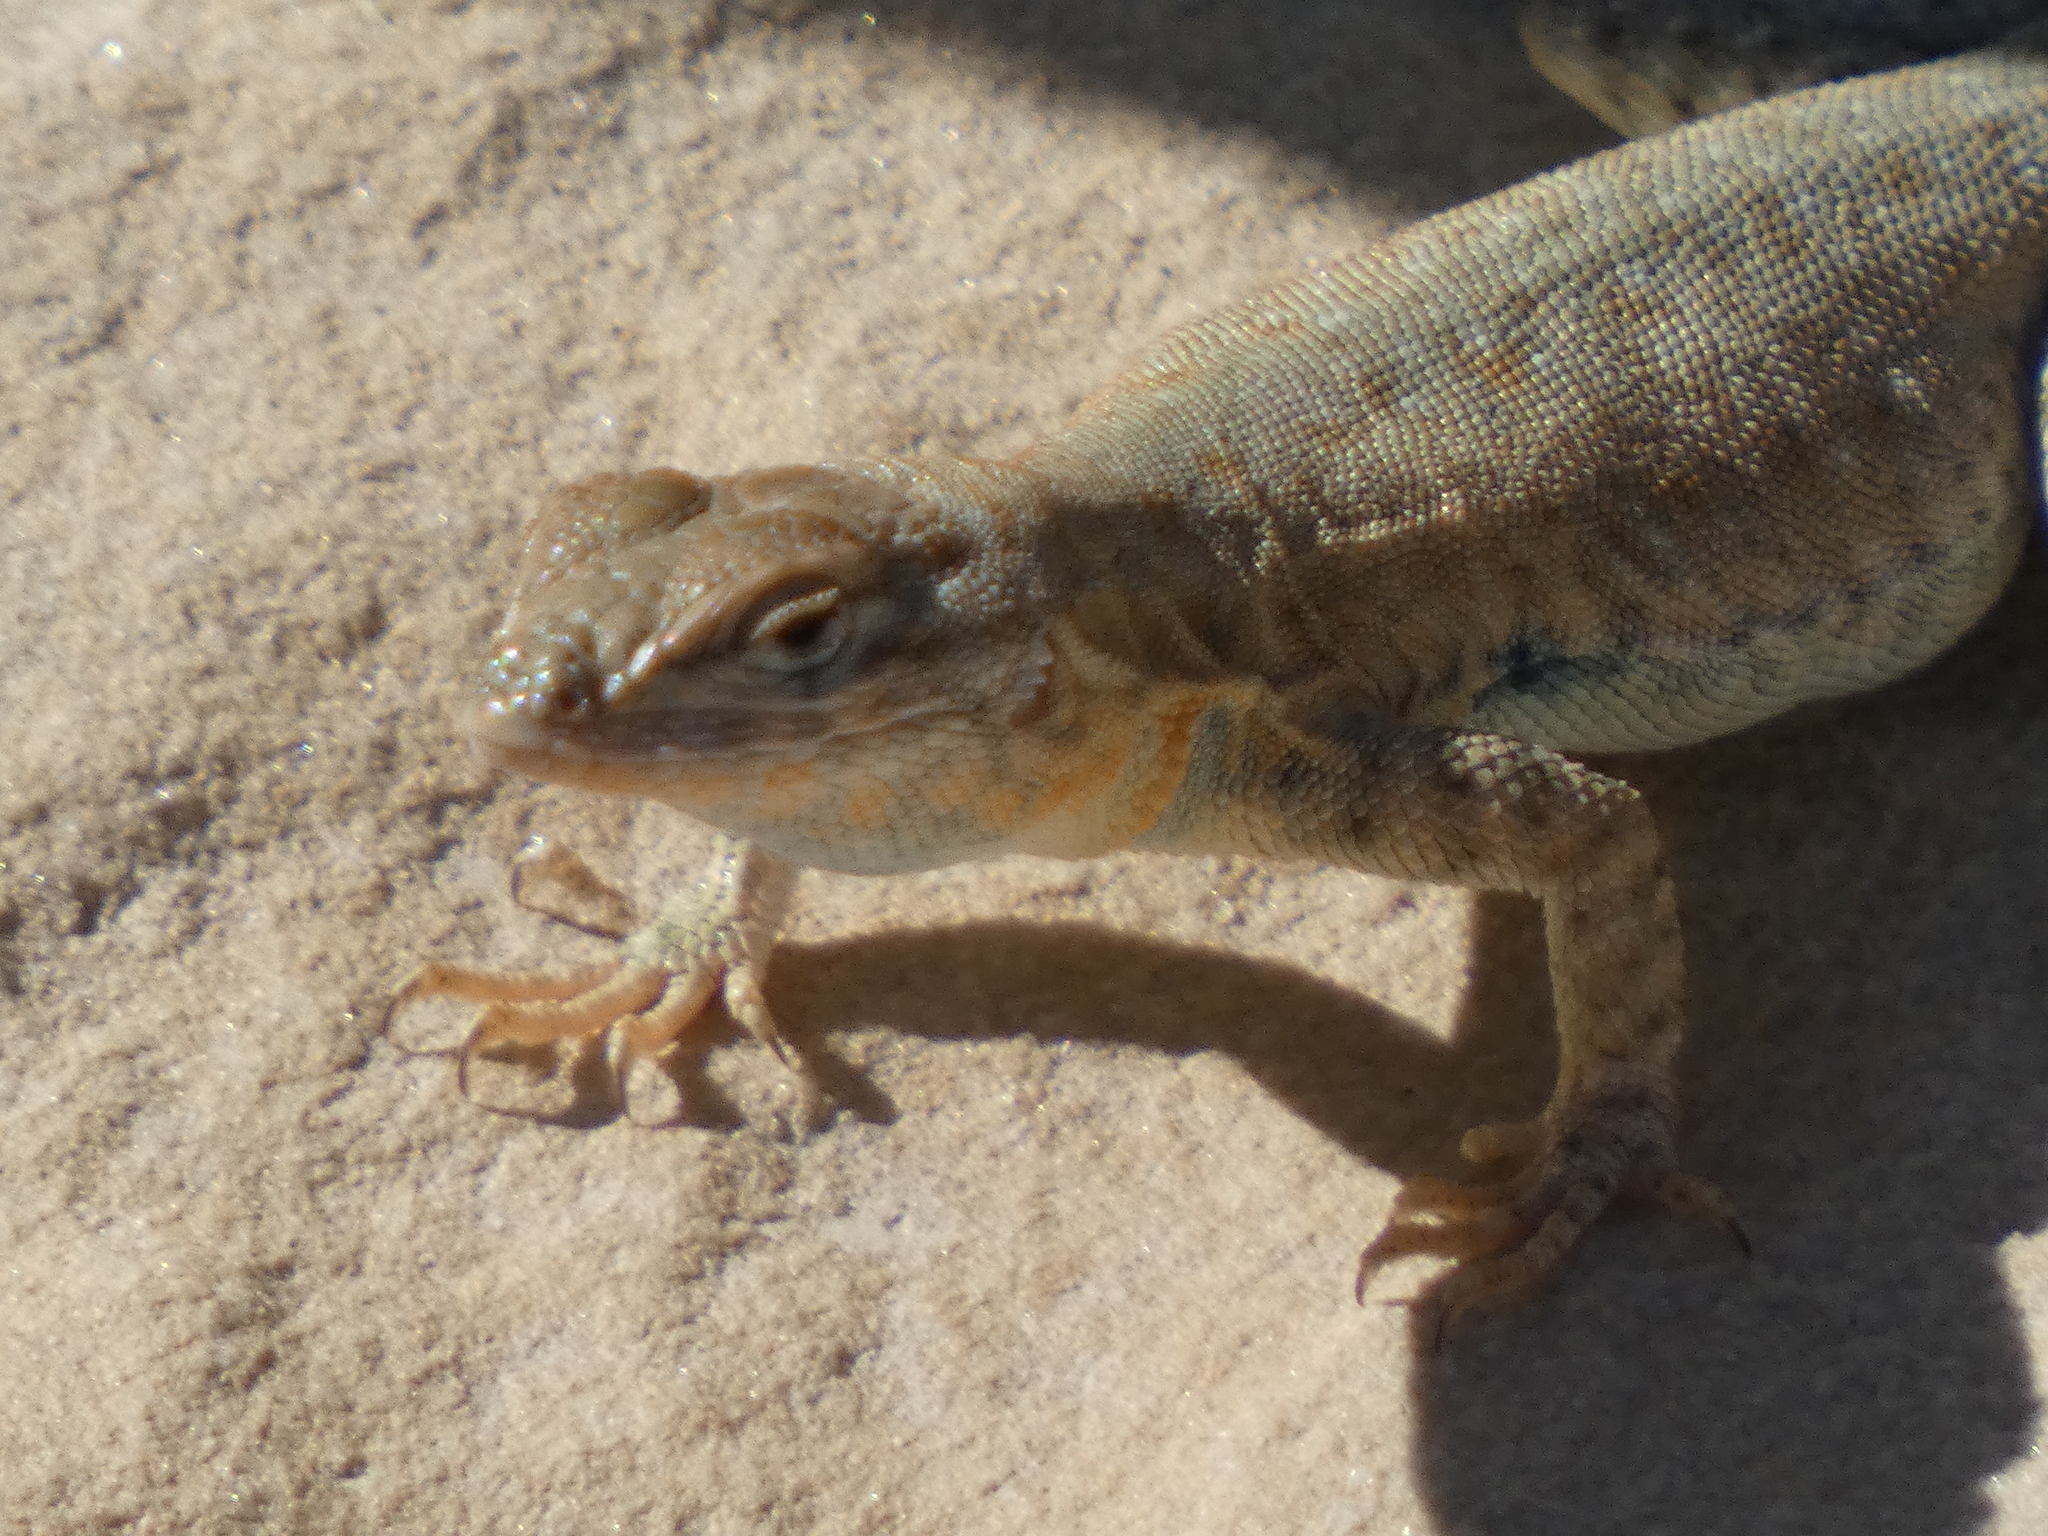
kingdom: Animalia
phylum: Chordata
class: Squamata
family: Phrynosomatidae
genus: Uta
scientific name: Uta stansburiana
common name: Side-blotched lizard
